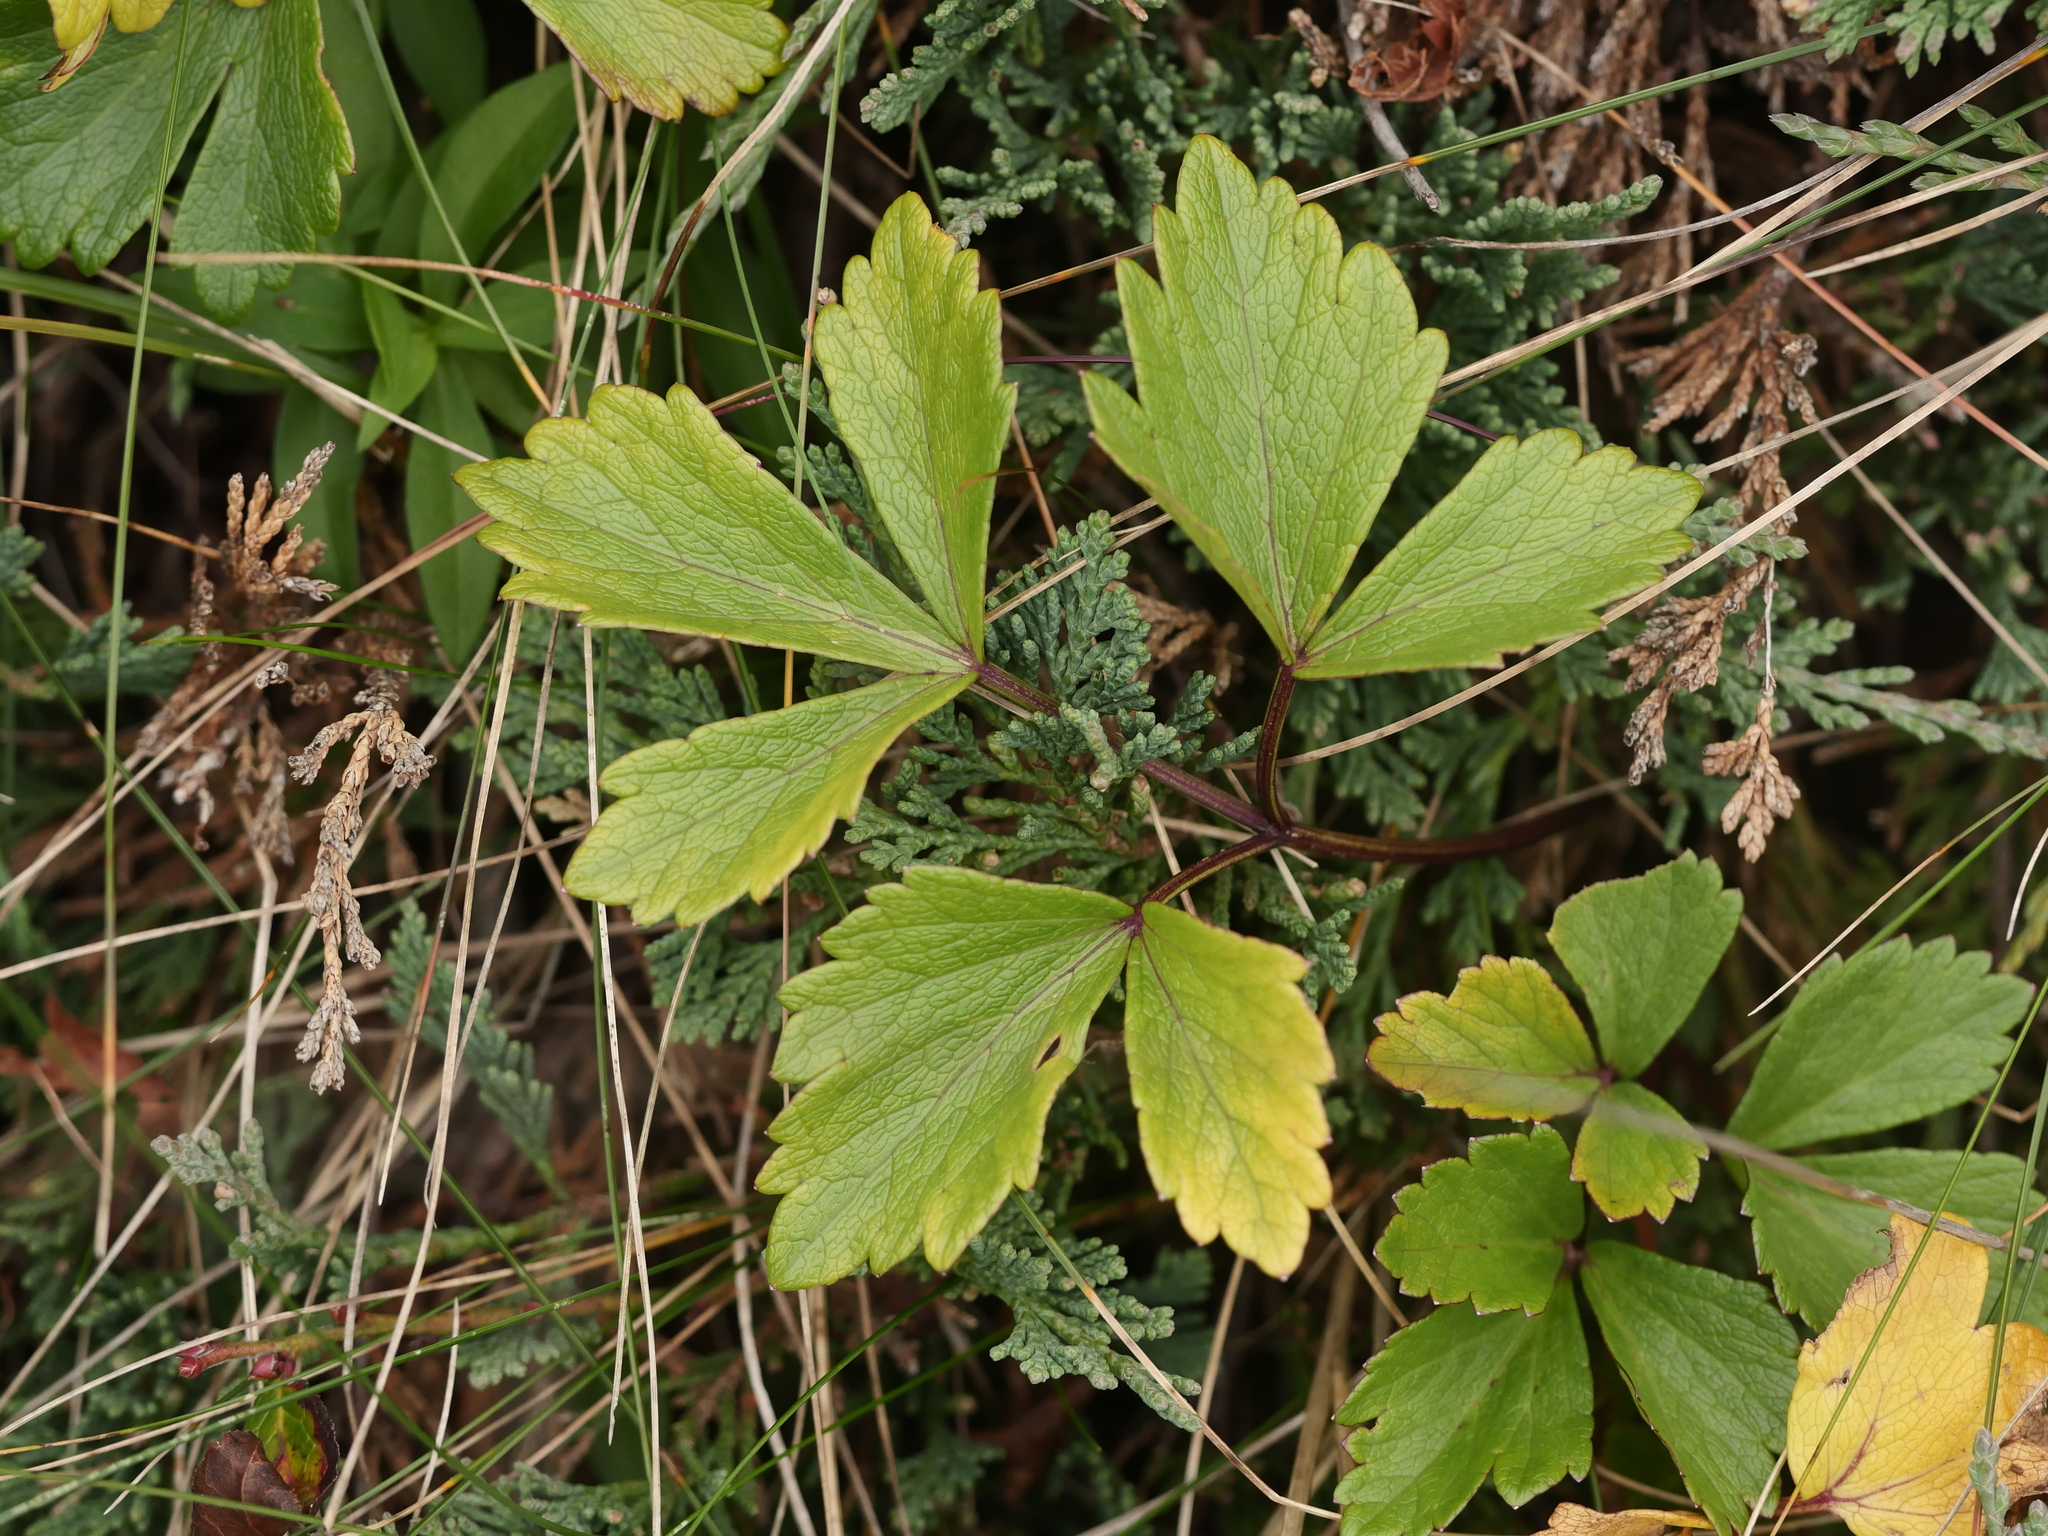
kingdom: Plantae
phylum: Tracheophyta
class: Magnoliopsida
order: Apiales
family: Apiaceae
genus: Ligusticum
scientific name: Ligusticum scothicum
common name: Beach lovage
